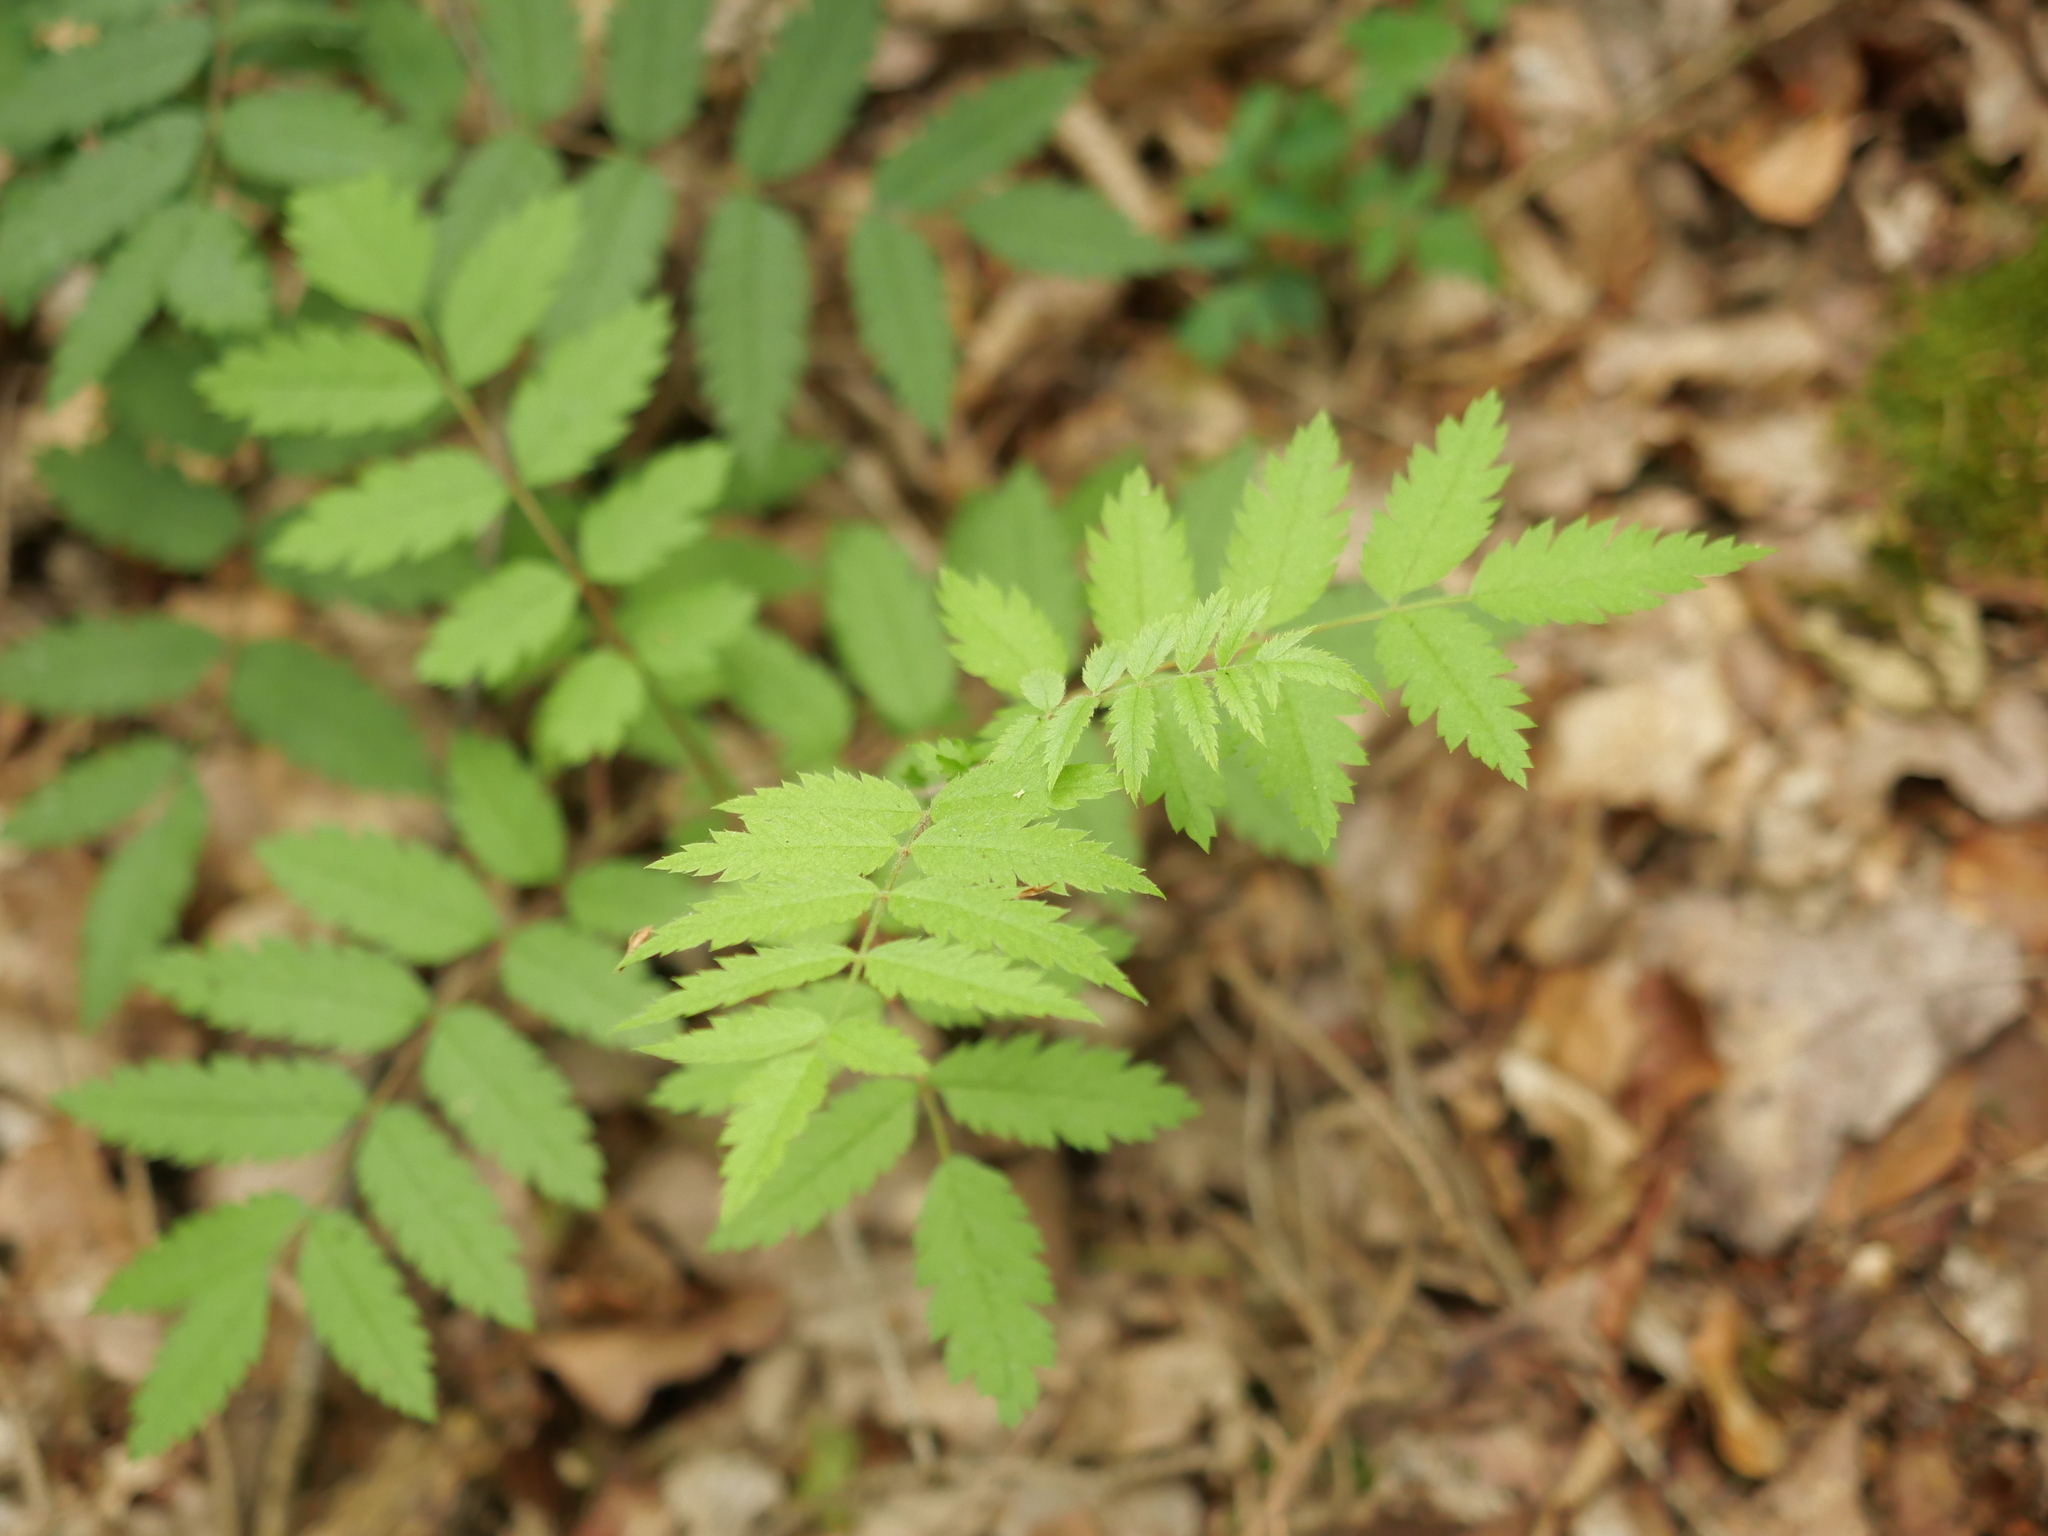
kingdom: Plantae
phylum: Tracheophyta
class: Magnoliopsida
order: Rosales
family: Rosaceae
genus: Sorbus
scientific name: Sorbus aucuparia
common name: Rowan
